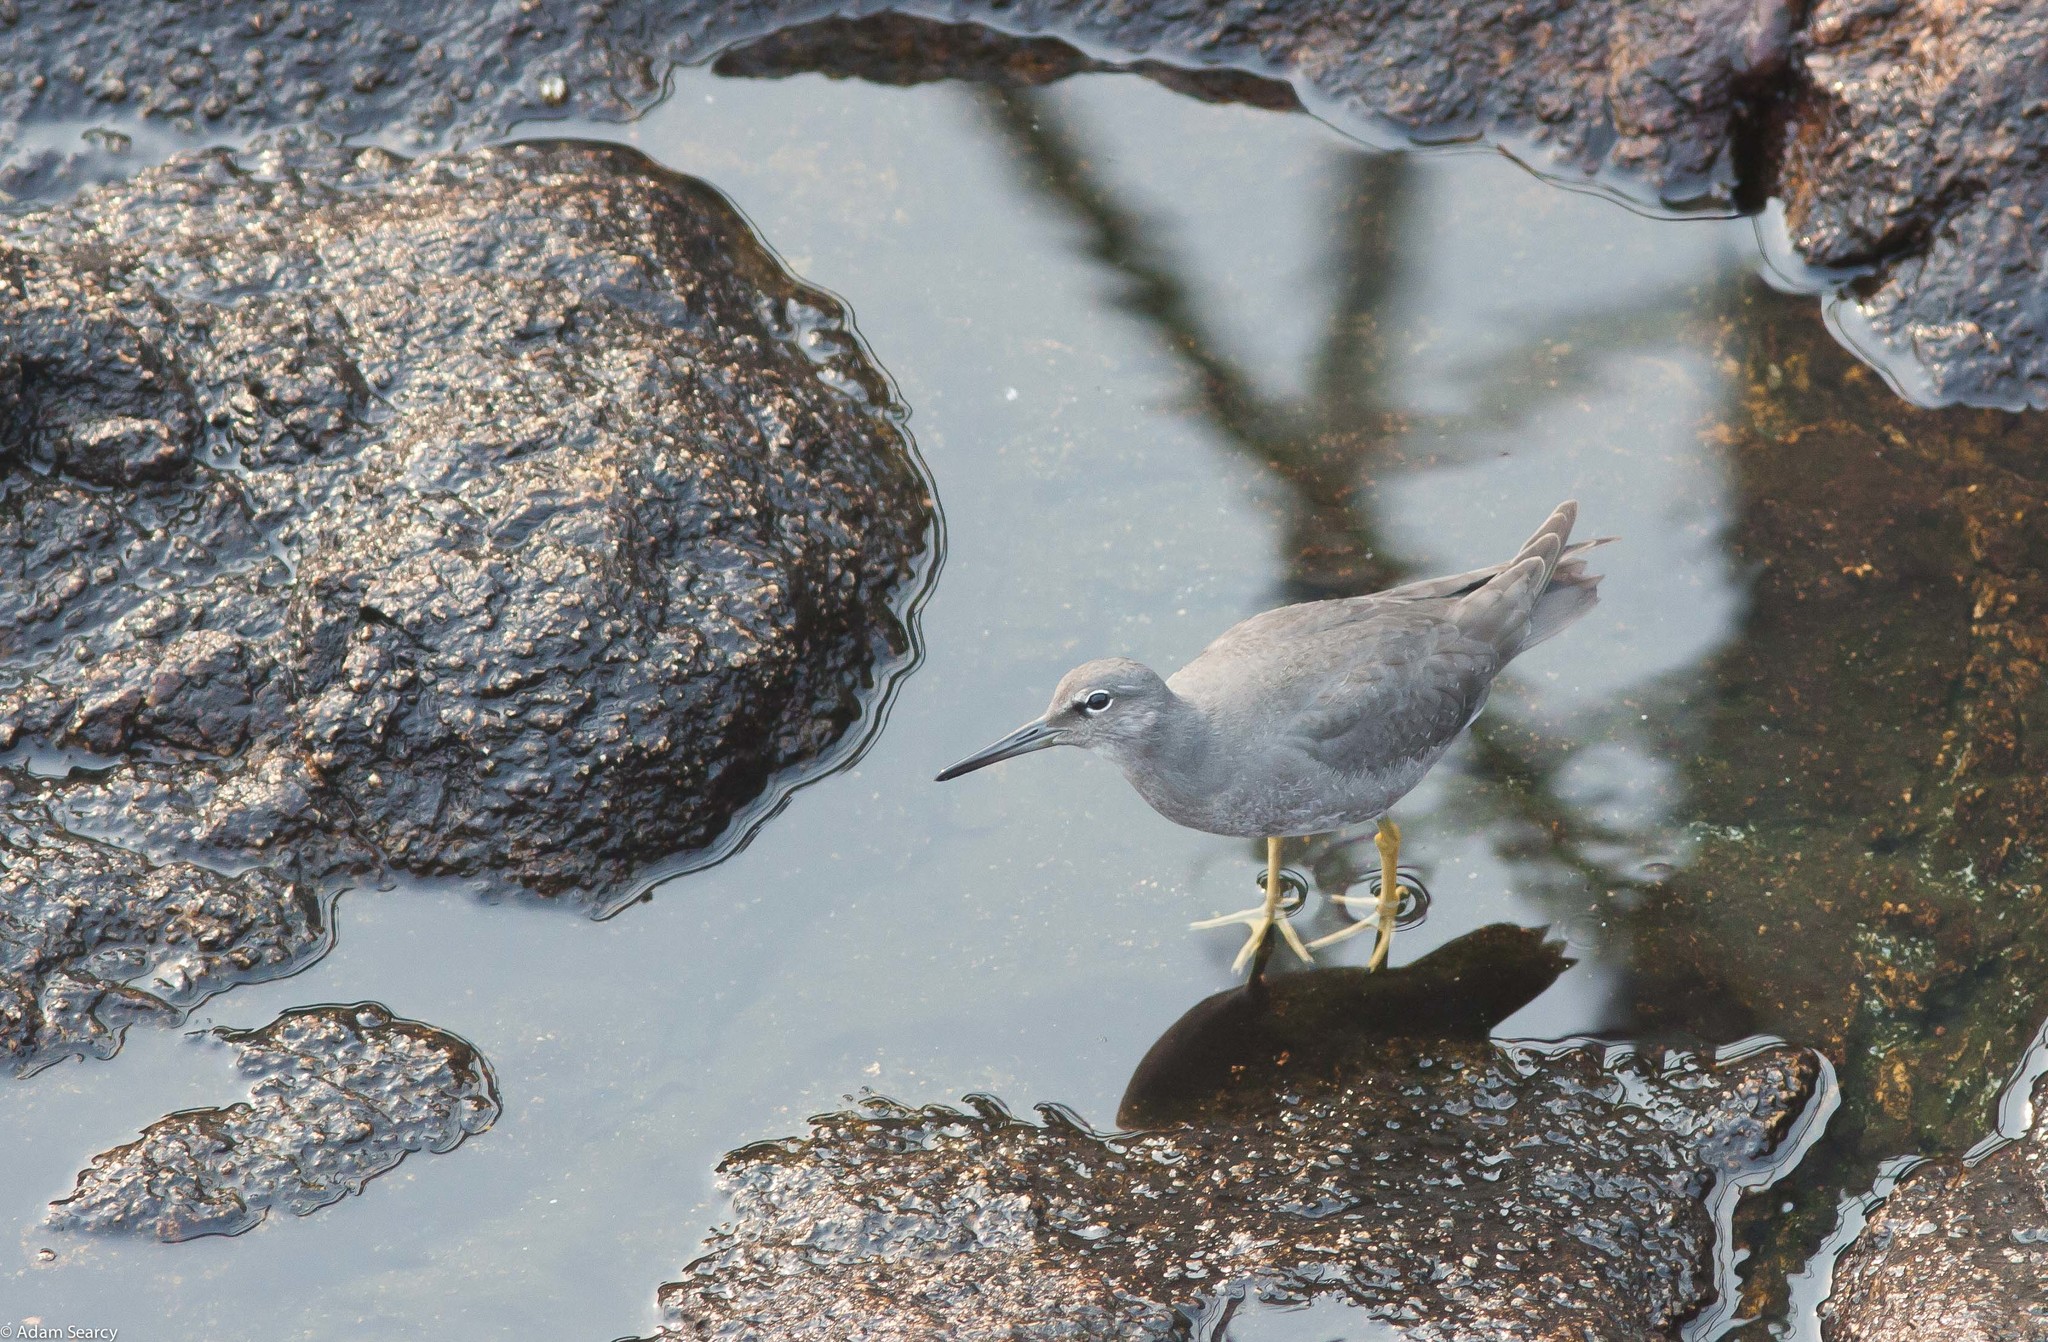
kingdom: Animalia
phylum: Chordata
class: Aves
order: Charadriiformes
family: Scolopacidae
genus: Tringa
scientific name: Tringa incana
